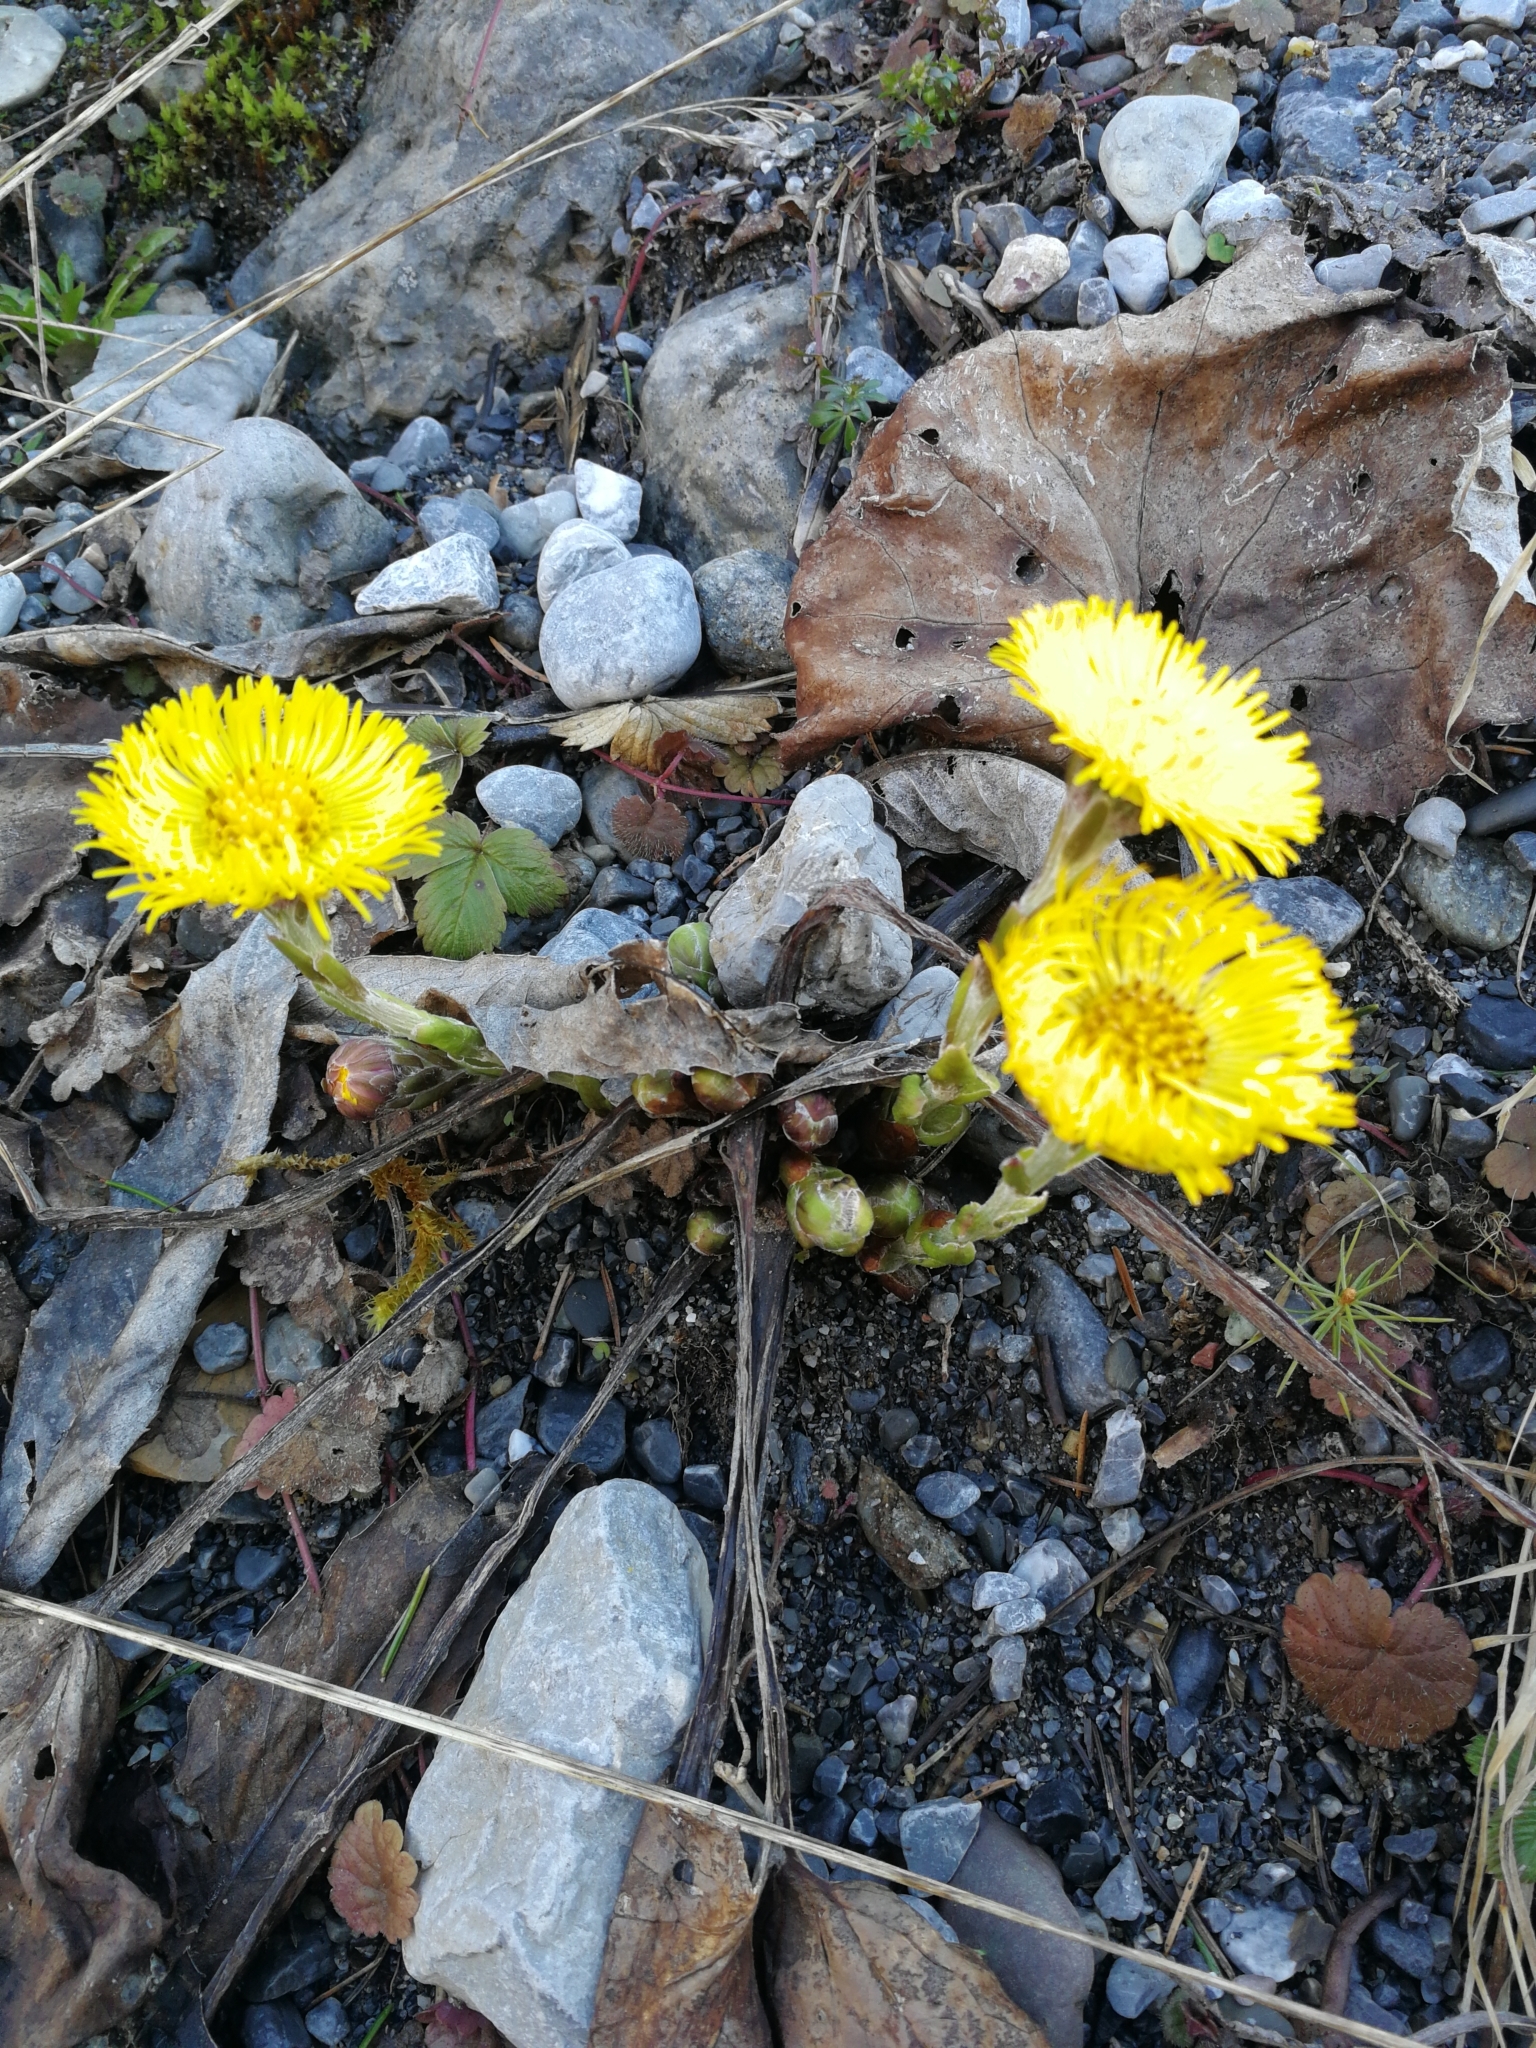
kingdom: Plantae
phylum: Tracheophyta
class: Magnoliopsida
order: Asterales
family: Asteraceae
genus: Tussilago
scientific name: Tussilago farfara
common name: Coltsfoot
